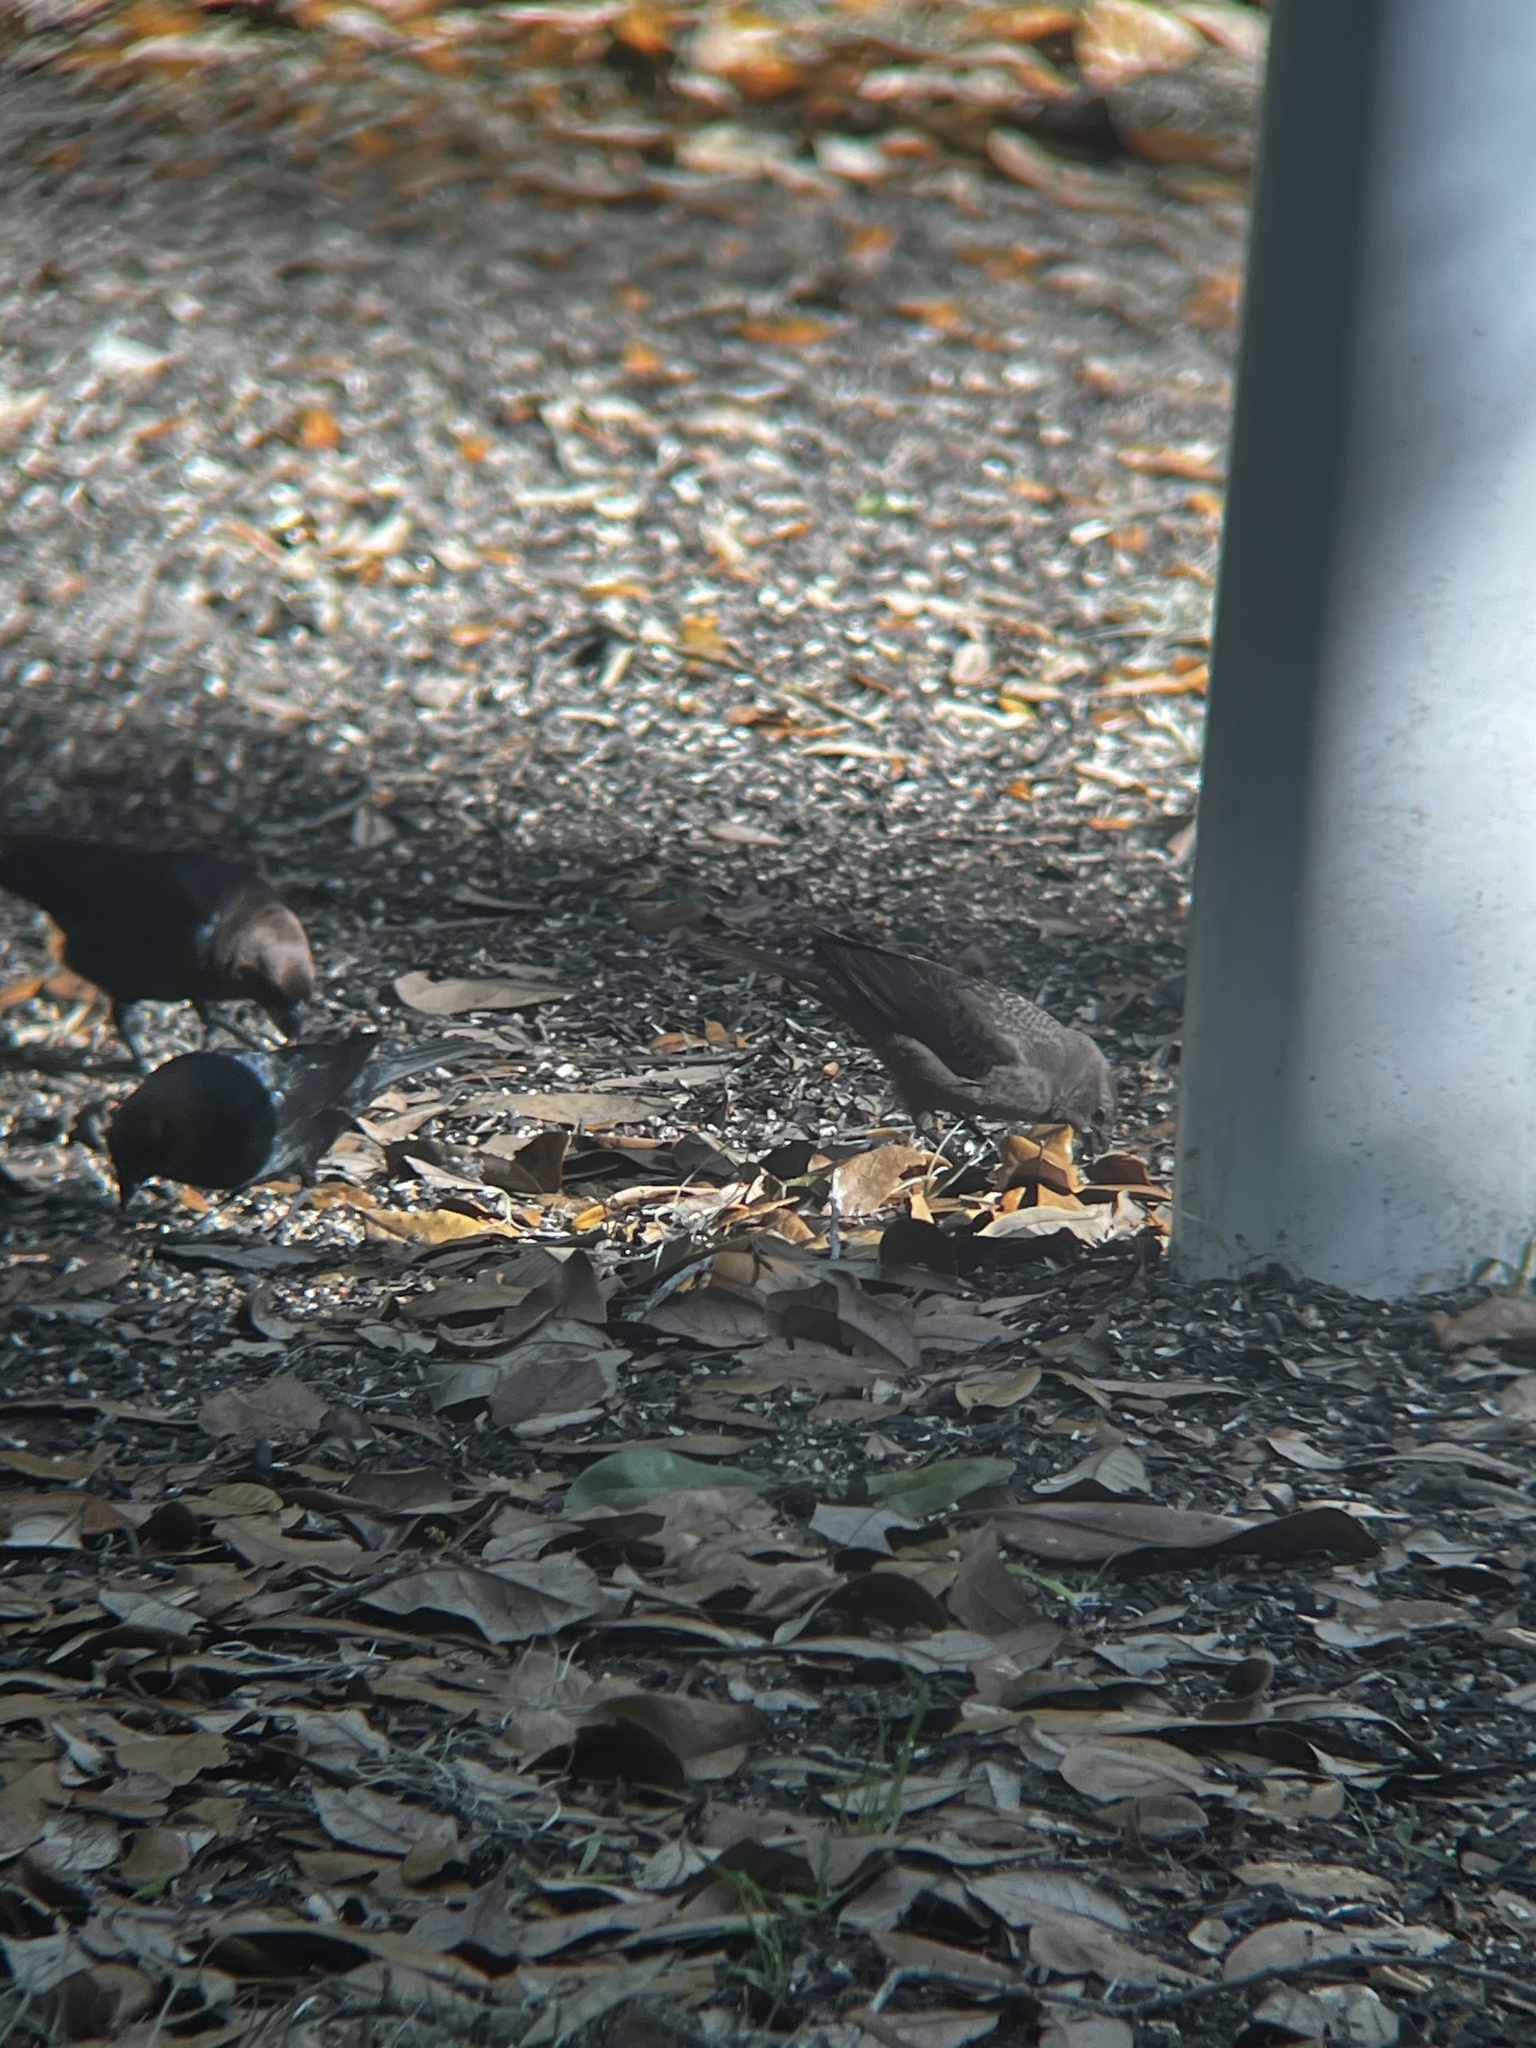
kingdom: Animalia
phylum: Chordata
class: Aves
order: Passeriformes
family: Icteridae
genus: Molothrus
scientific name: Molothrus ater
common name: Brown-headed cowbird
